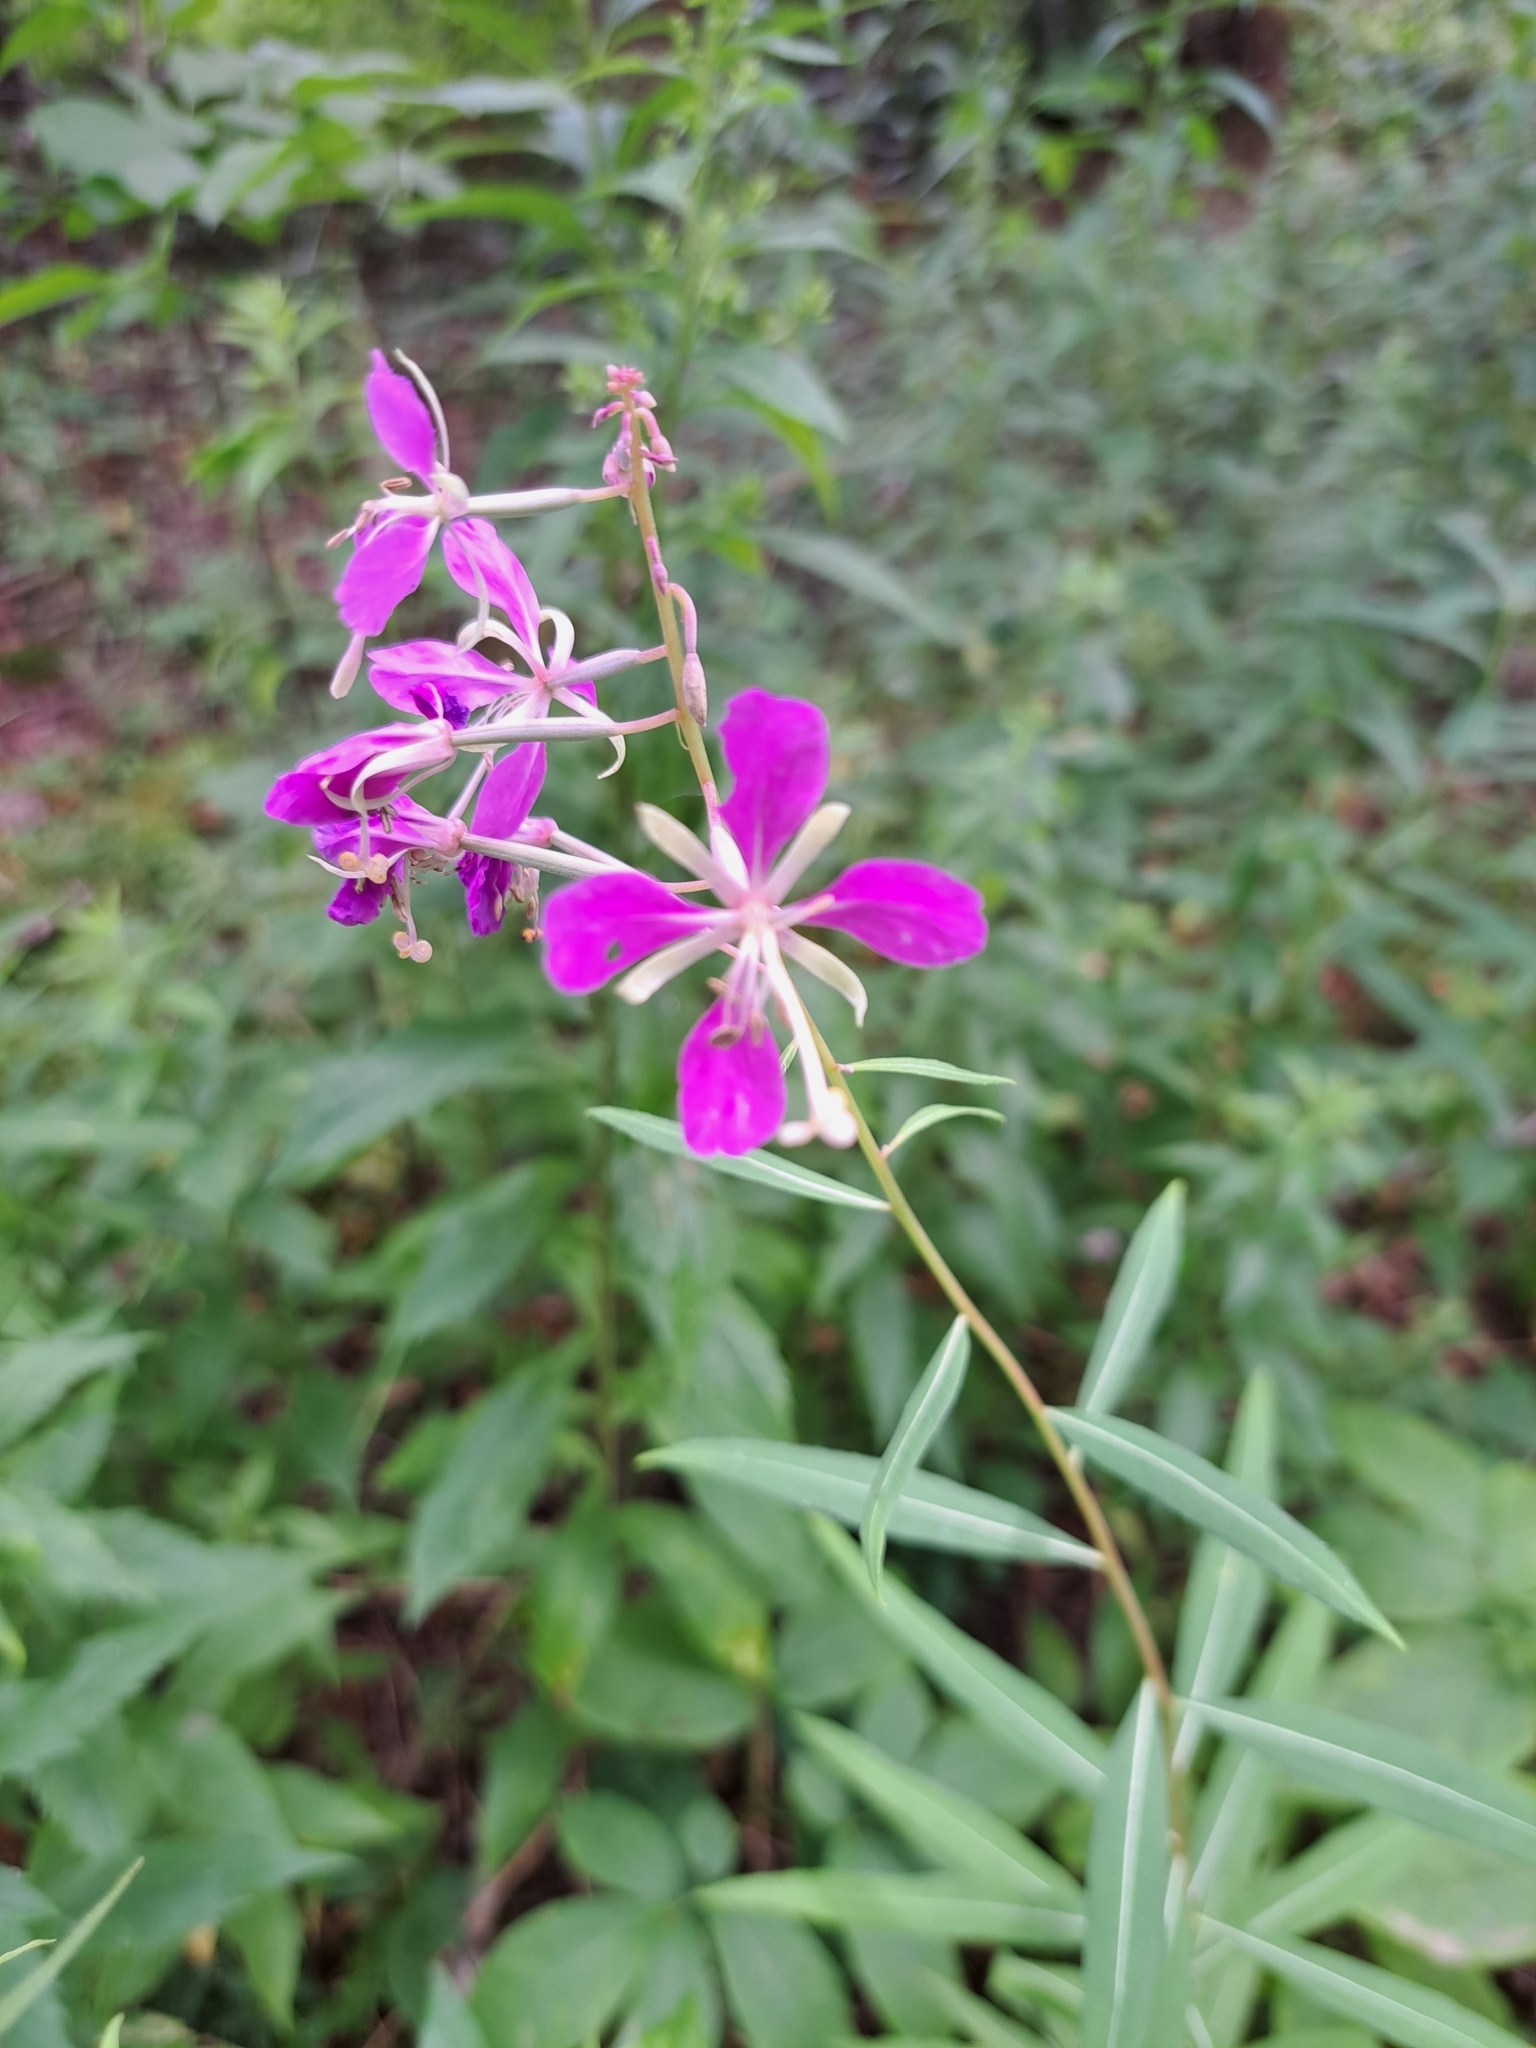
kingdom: Plantae
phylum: Tracheophyta
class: Magnoliopsida
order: Myrtales
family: Onagraceae
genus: Chamaenerion
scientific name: Chamaenerion angustifolium
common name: Fireweed
